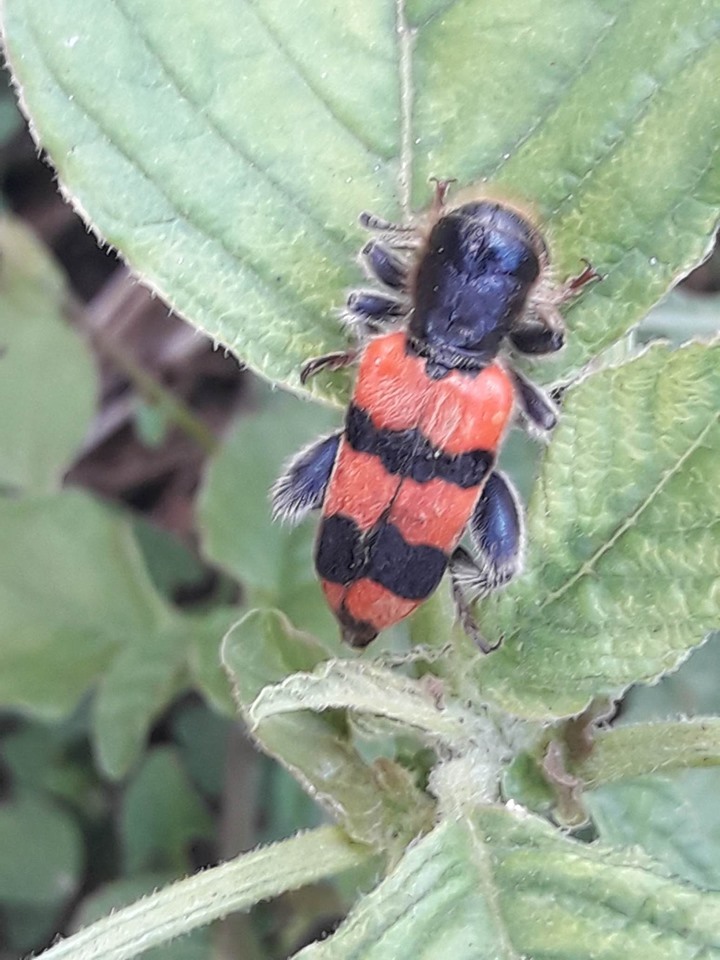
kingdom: Animalia
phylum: Arthropoda
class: Insecta
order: Coleoptera
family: Cleridae
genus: Trichodes
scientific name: Trichodes crabroniformis
